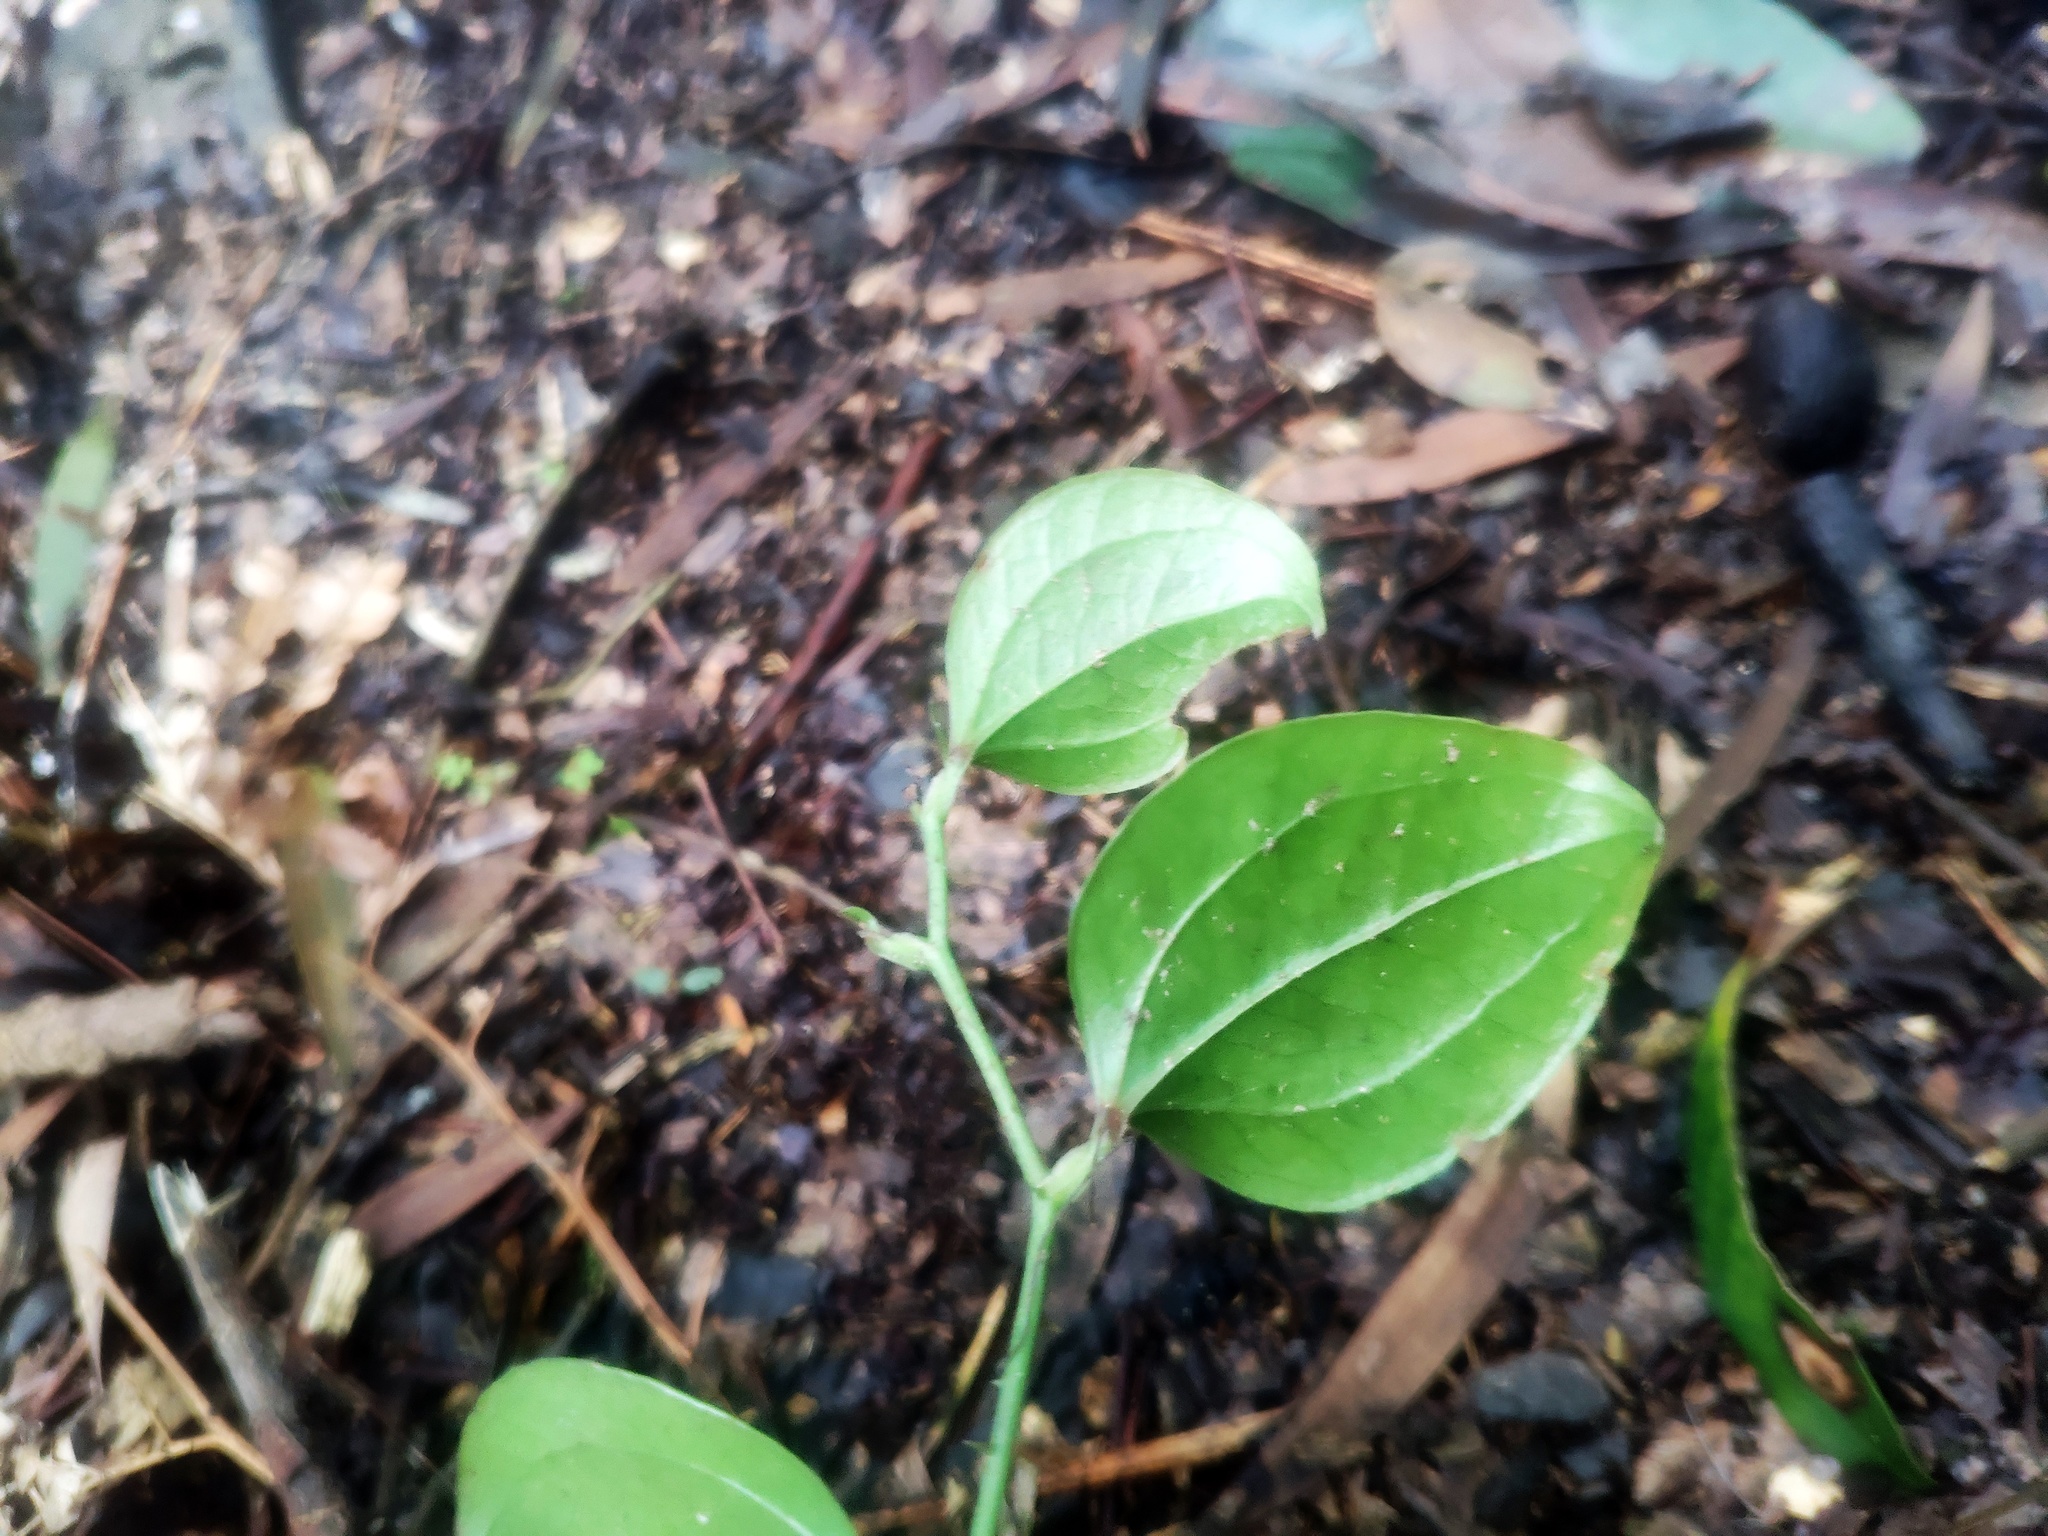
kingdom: Plantae
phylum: Tracheophyta
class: Liliopsida
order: Liliales
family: Smilacaceae
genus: Smilax
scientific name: Smilax china
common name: Chinaroot
